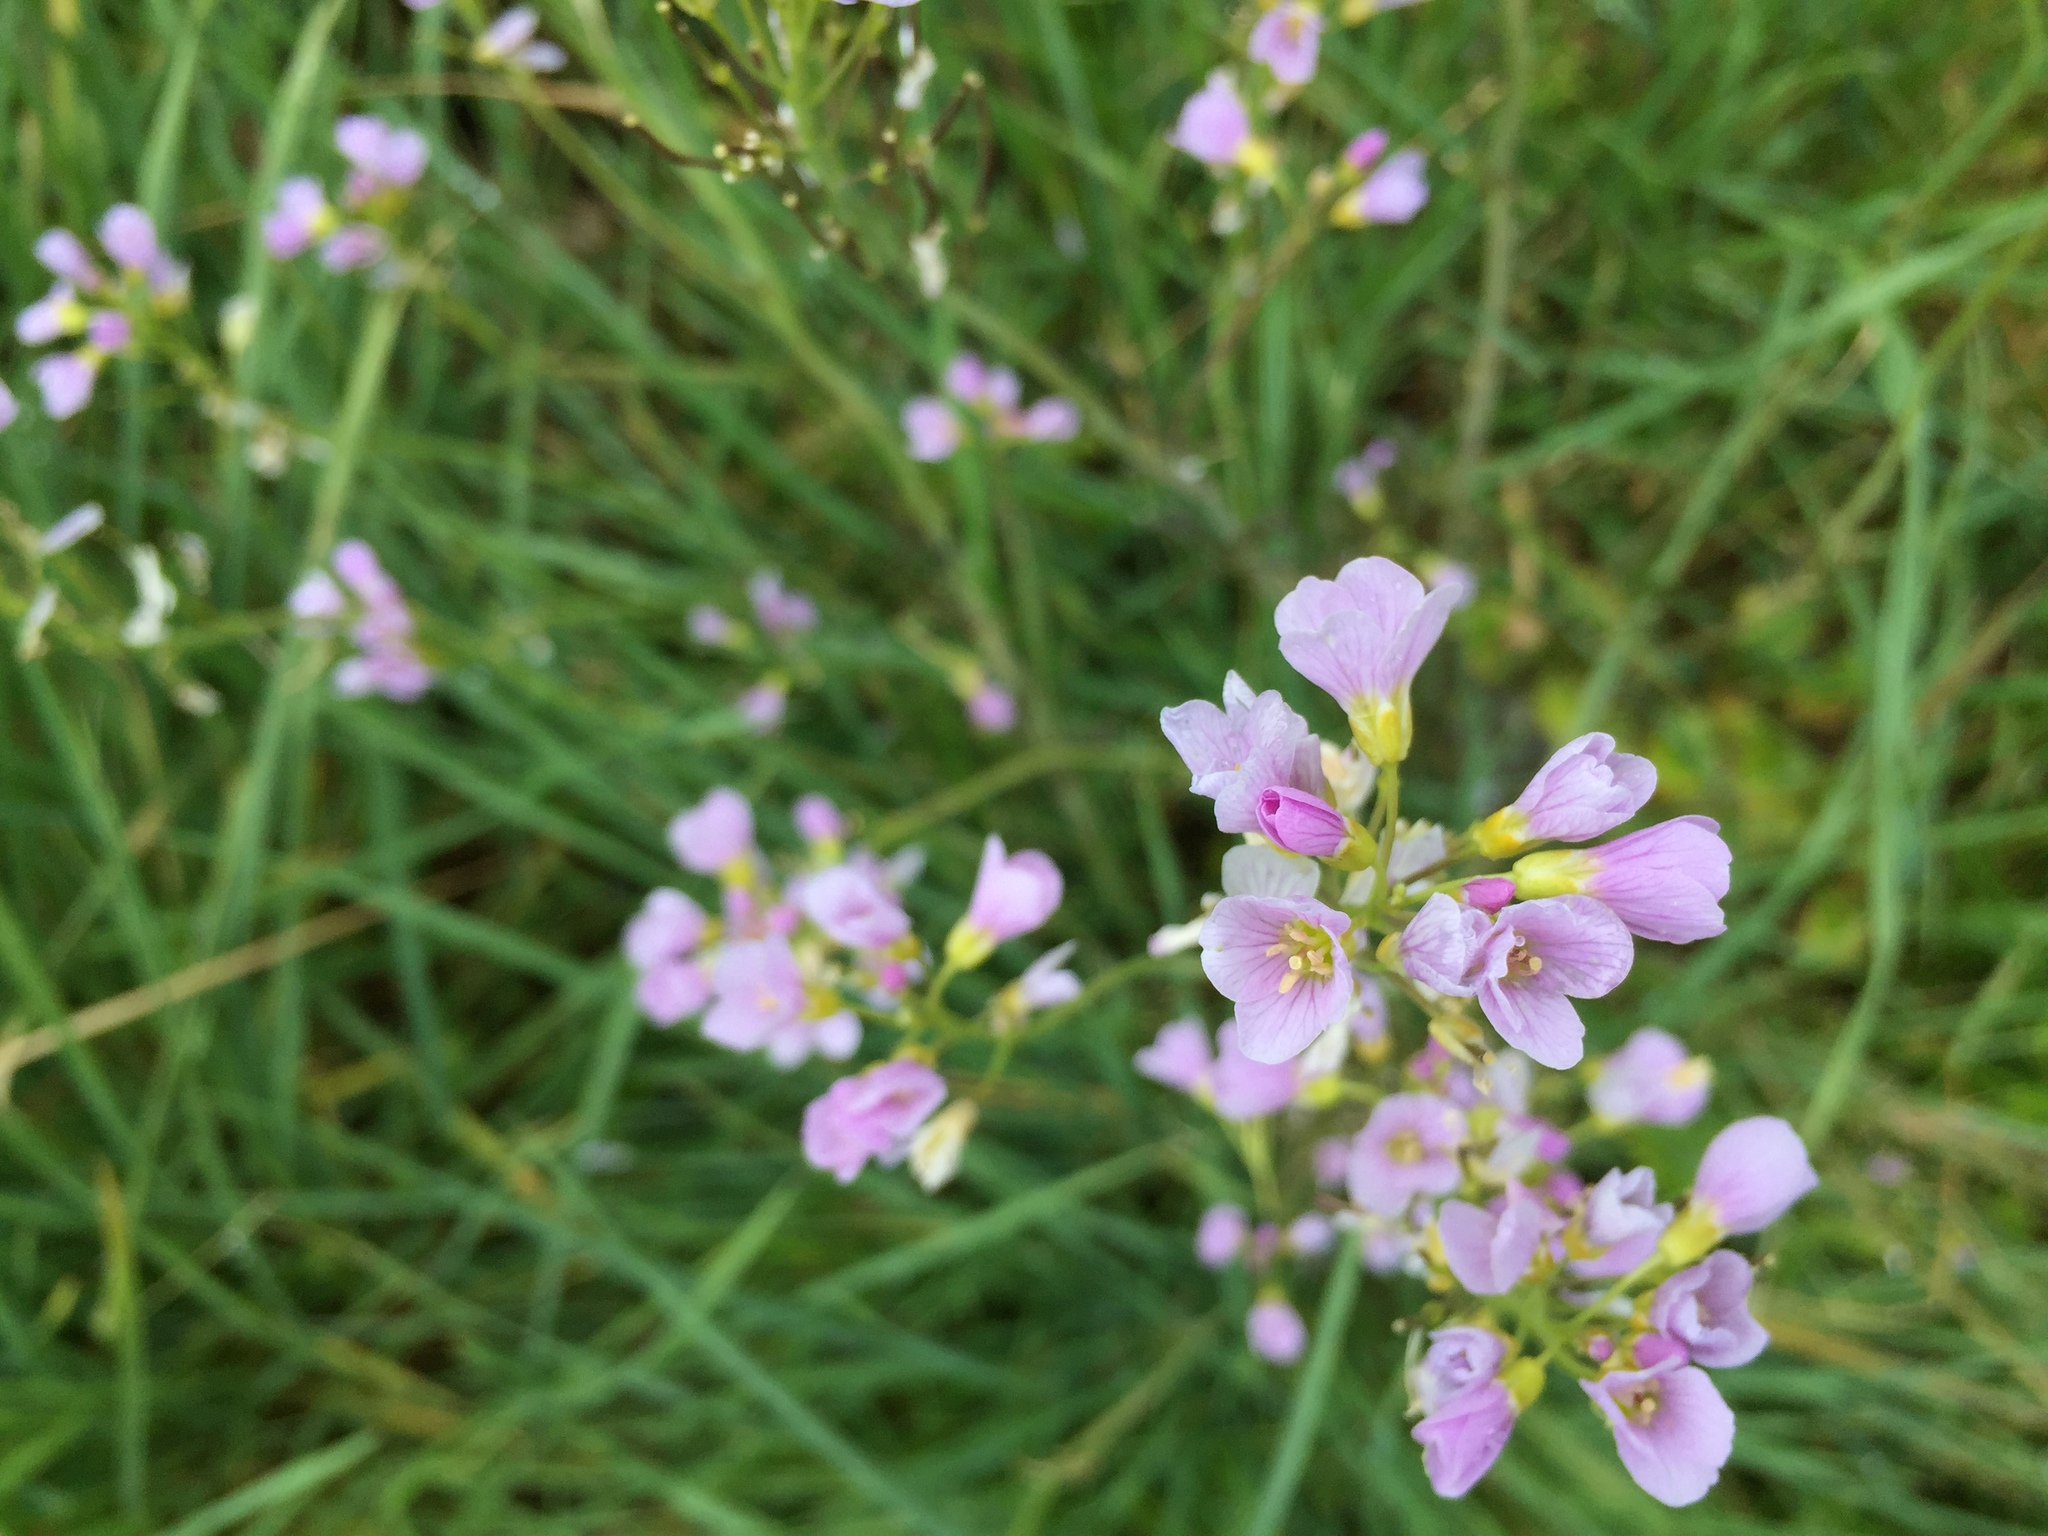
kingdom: Plantae
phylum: Tracheophyta
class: Magnoliopsida
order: Brassicales
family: Brassicaceae
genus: Cardamine
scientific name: Cardamine pratensis
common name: Cuckoo flower
